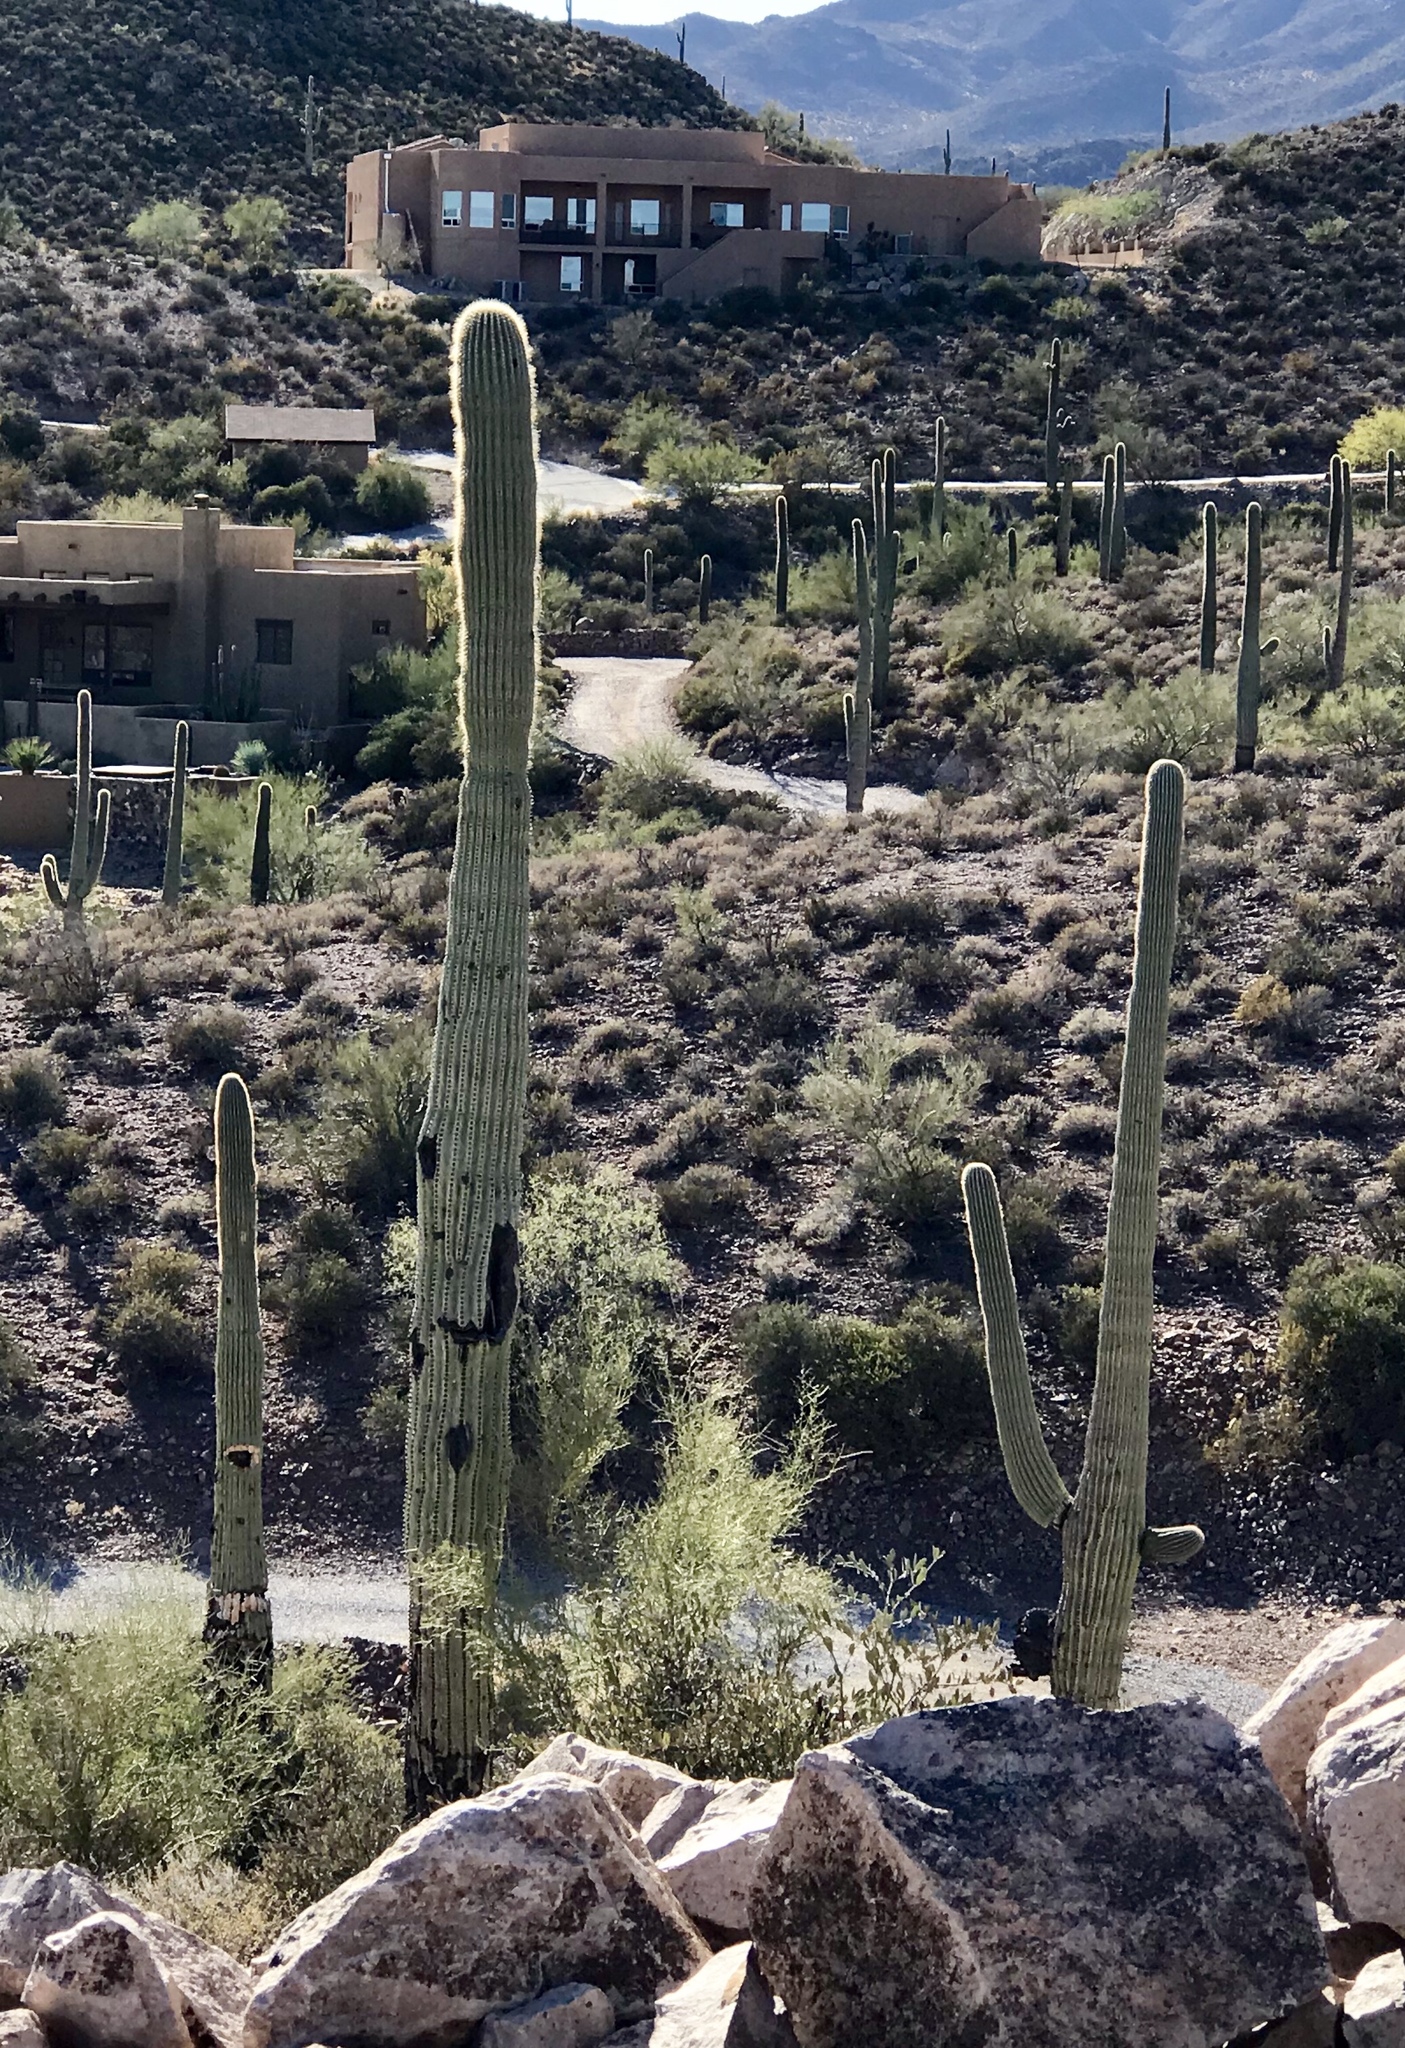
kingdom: Plantae
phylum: Tracheophyta
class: Magnoliopsida
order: Caryophyllales
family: Cactaceae
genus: Carnegiea
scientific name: Carnegiea gigantea
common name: Saguaro
